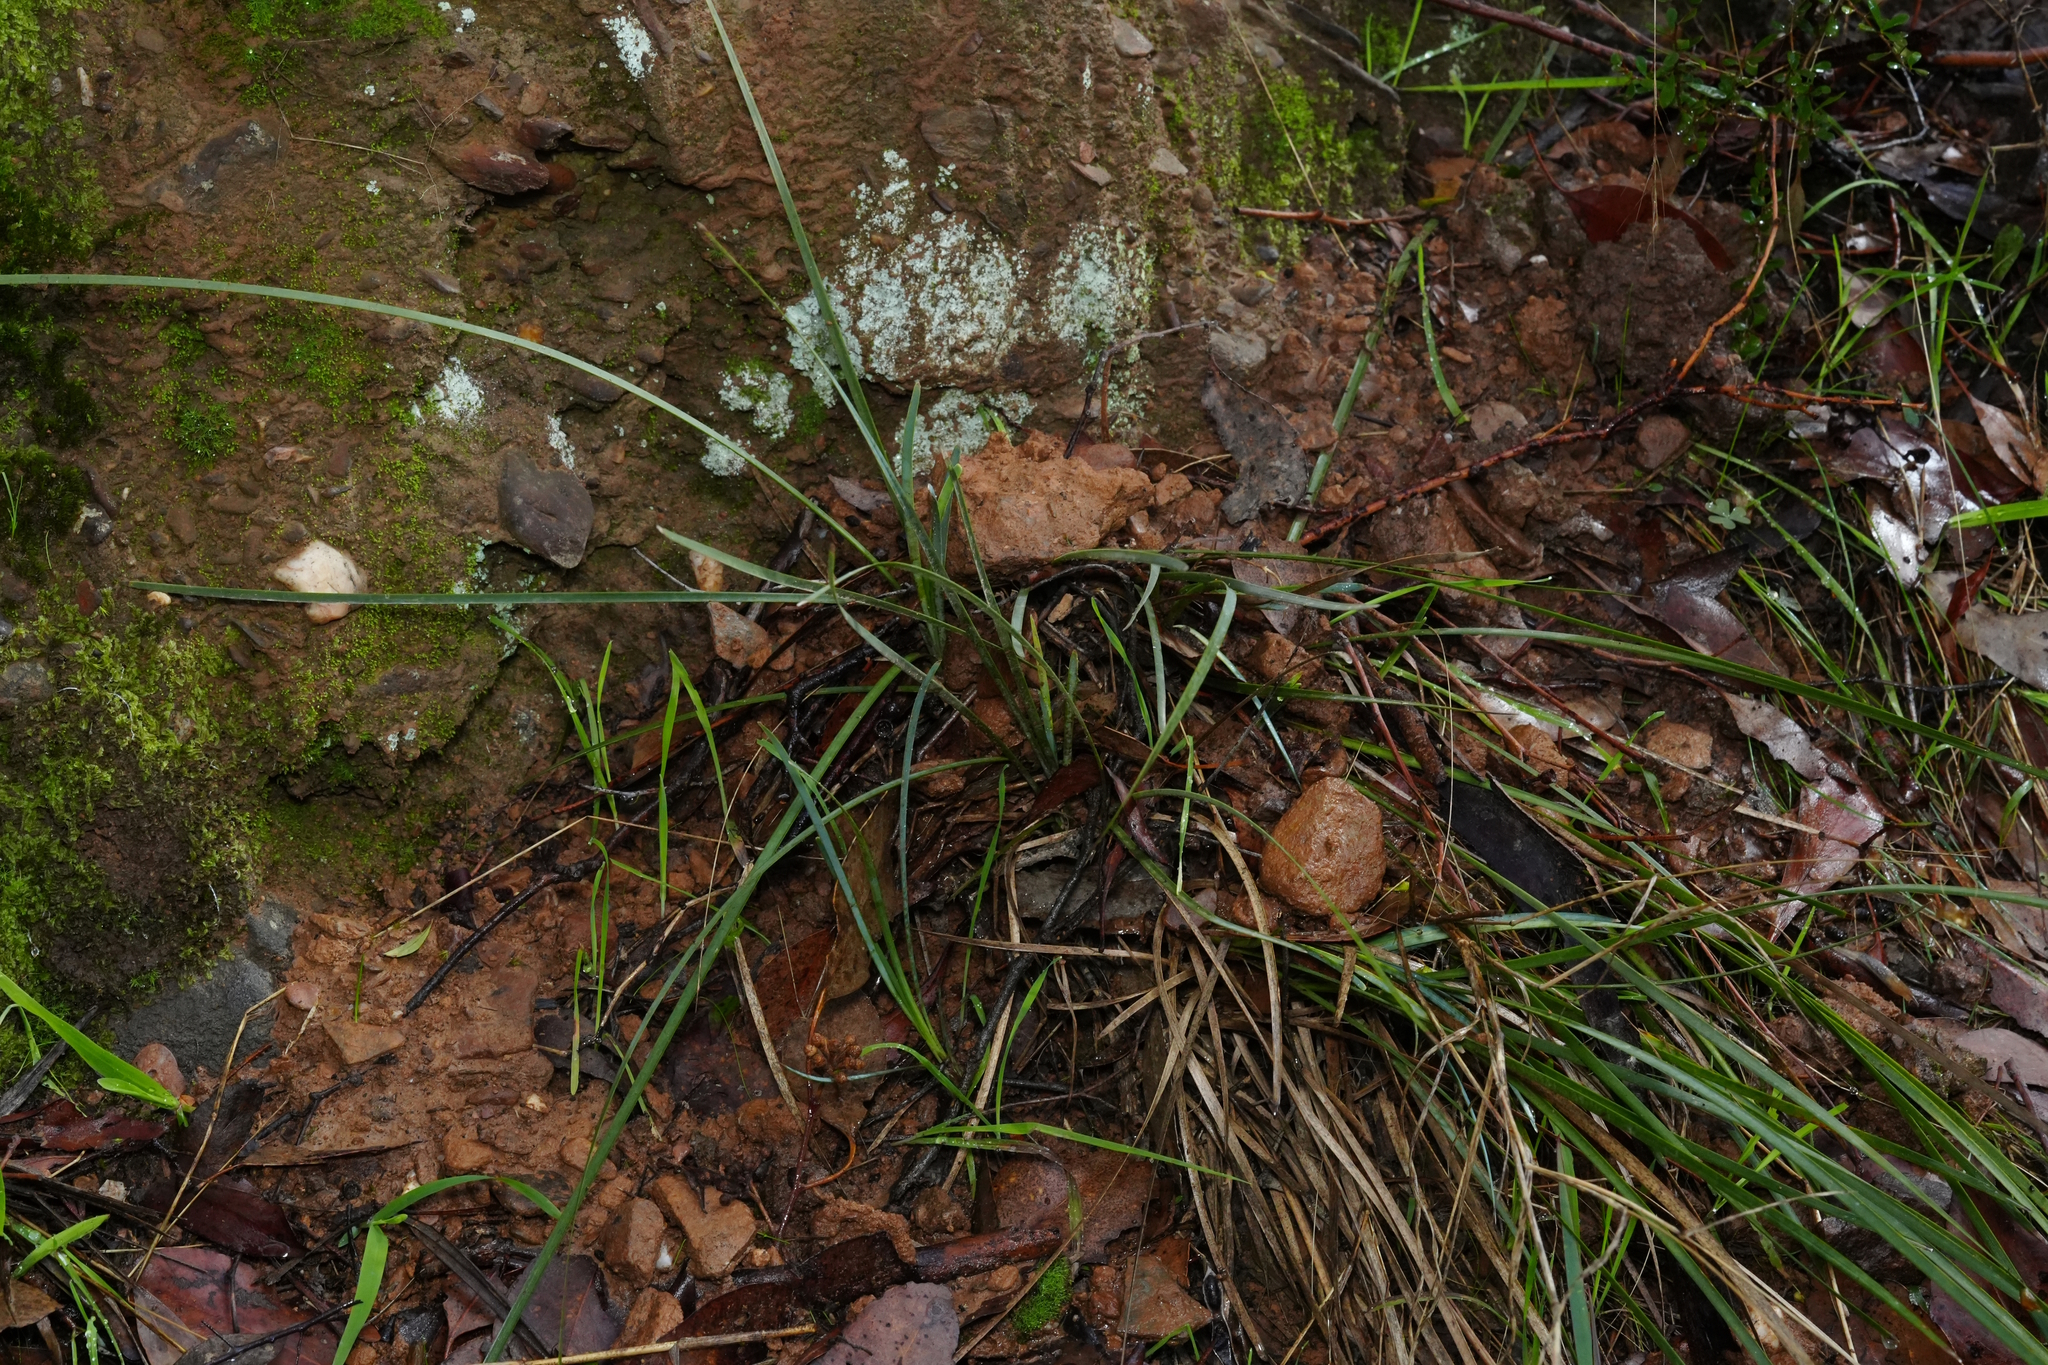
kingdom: Plantae
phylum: Tracheophyta
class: Liliopsida
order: Poales
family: Poaceae
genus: Briza
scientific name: Briza maxima
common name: Big quakinggrass
